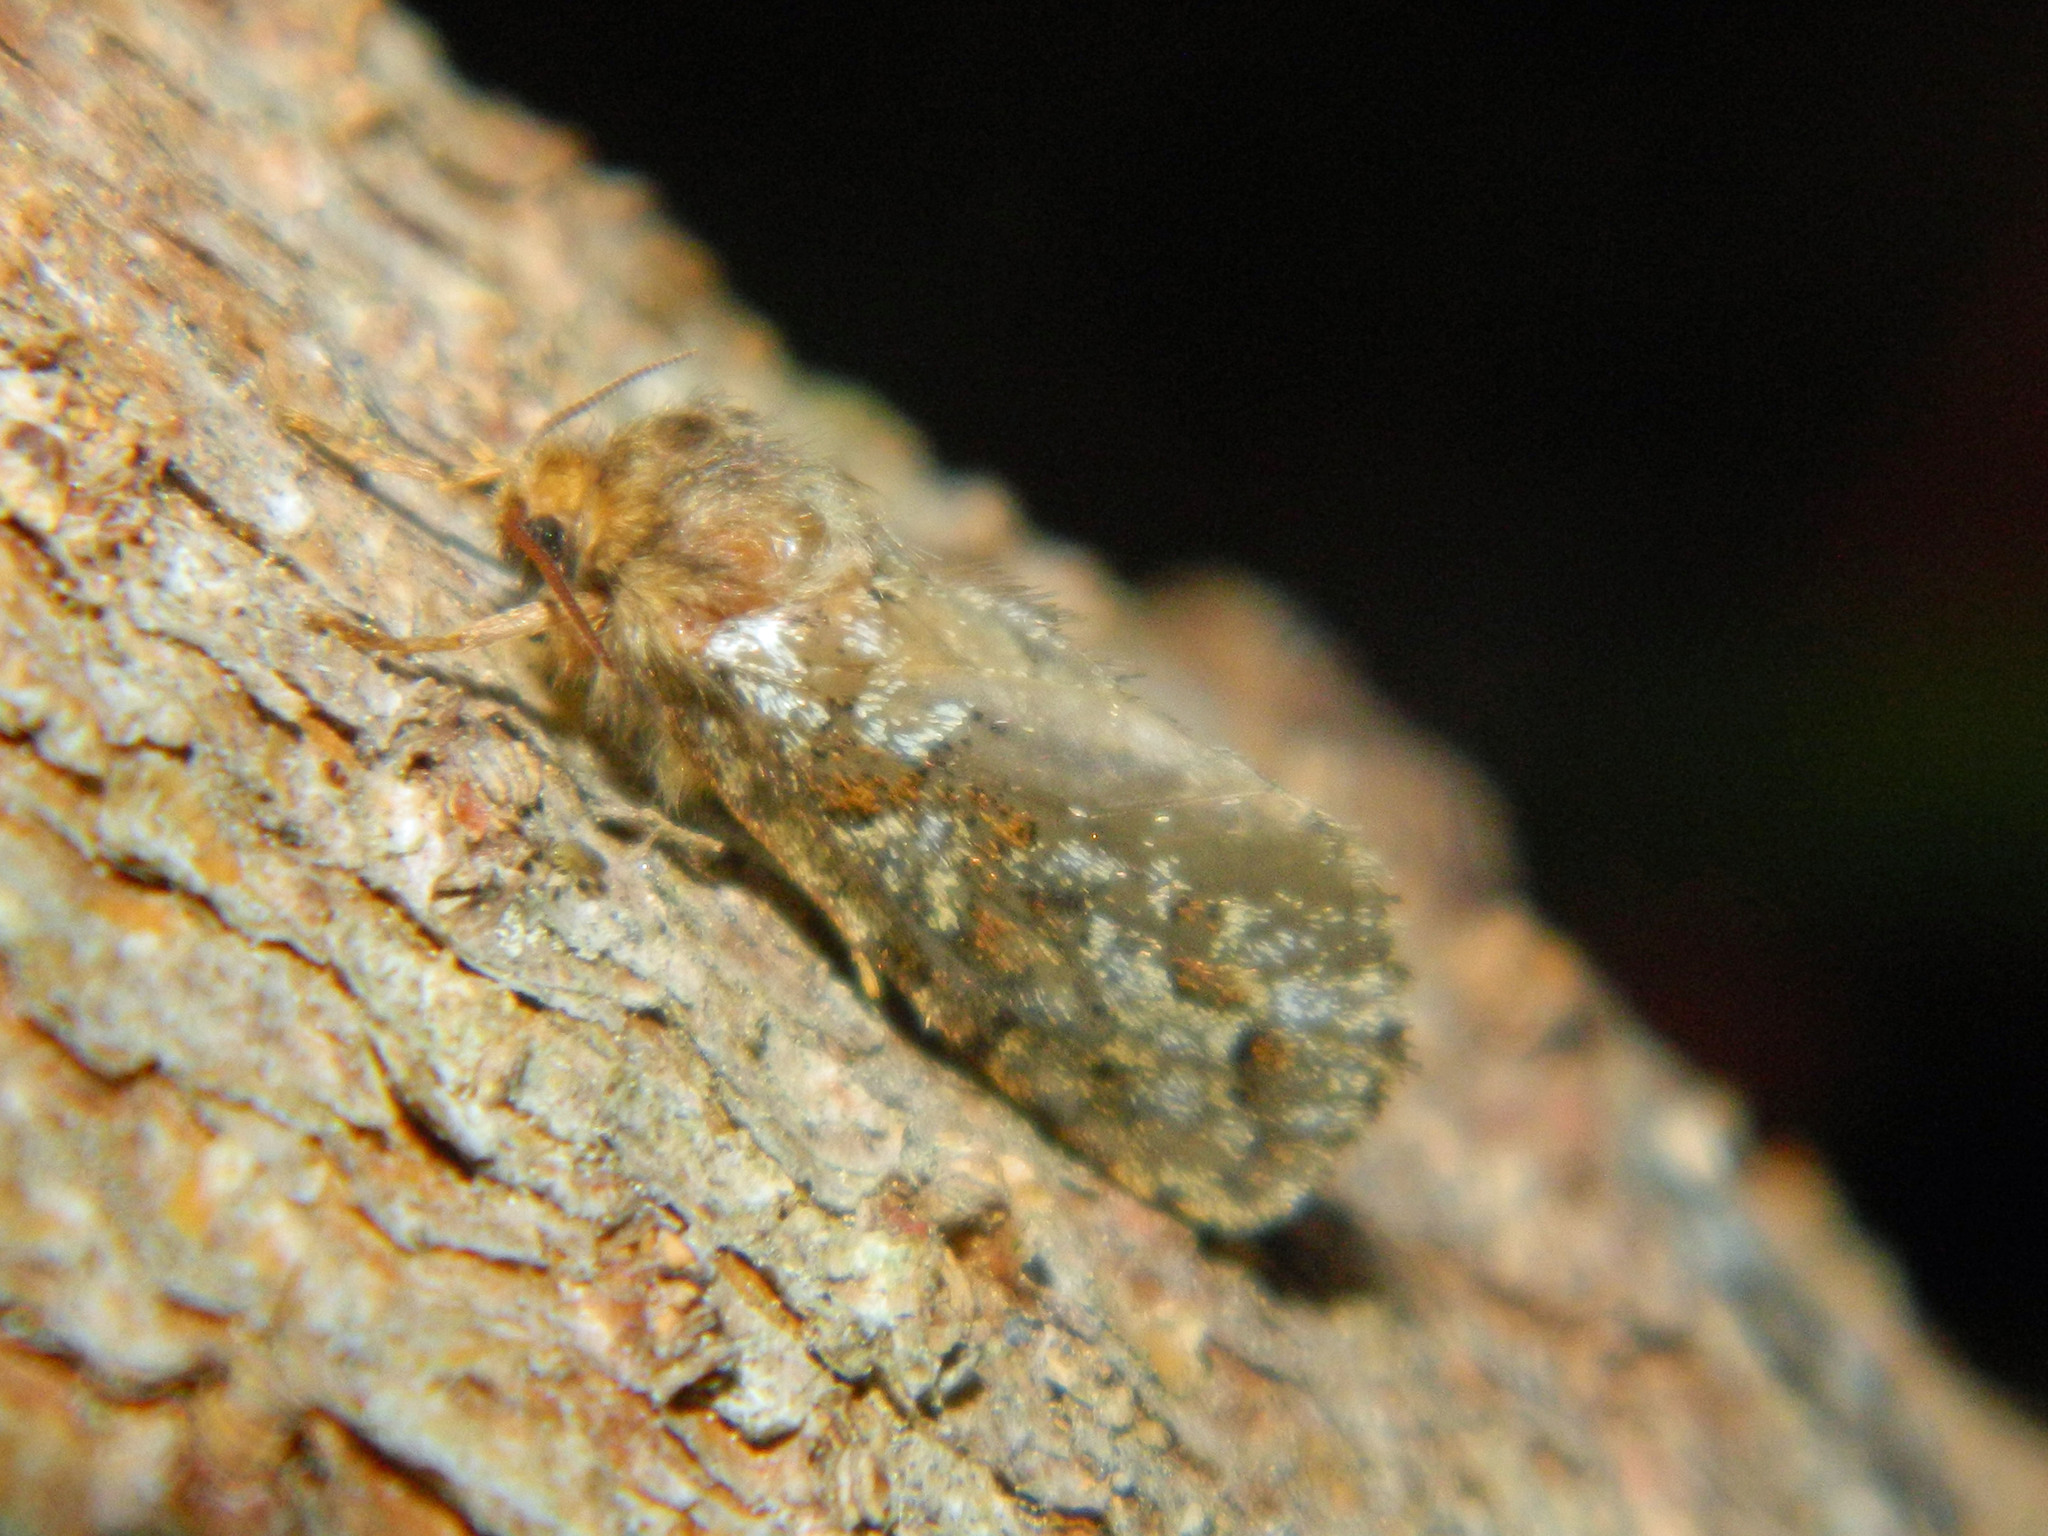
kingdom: Animalia
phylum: Arthropoda
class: Insecta
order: Lepidoptera
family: Hepialidae
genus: Korscheltellus
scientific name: Korscheltellus gracilis
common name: Conifer swift moth
